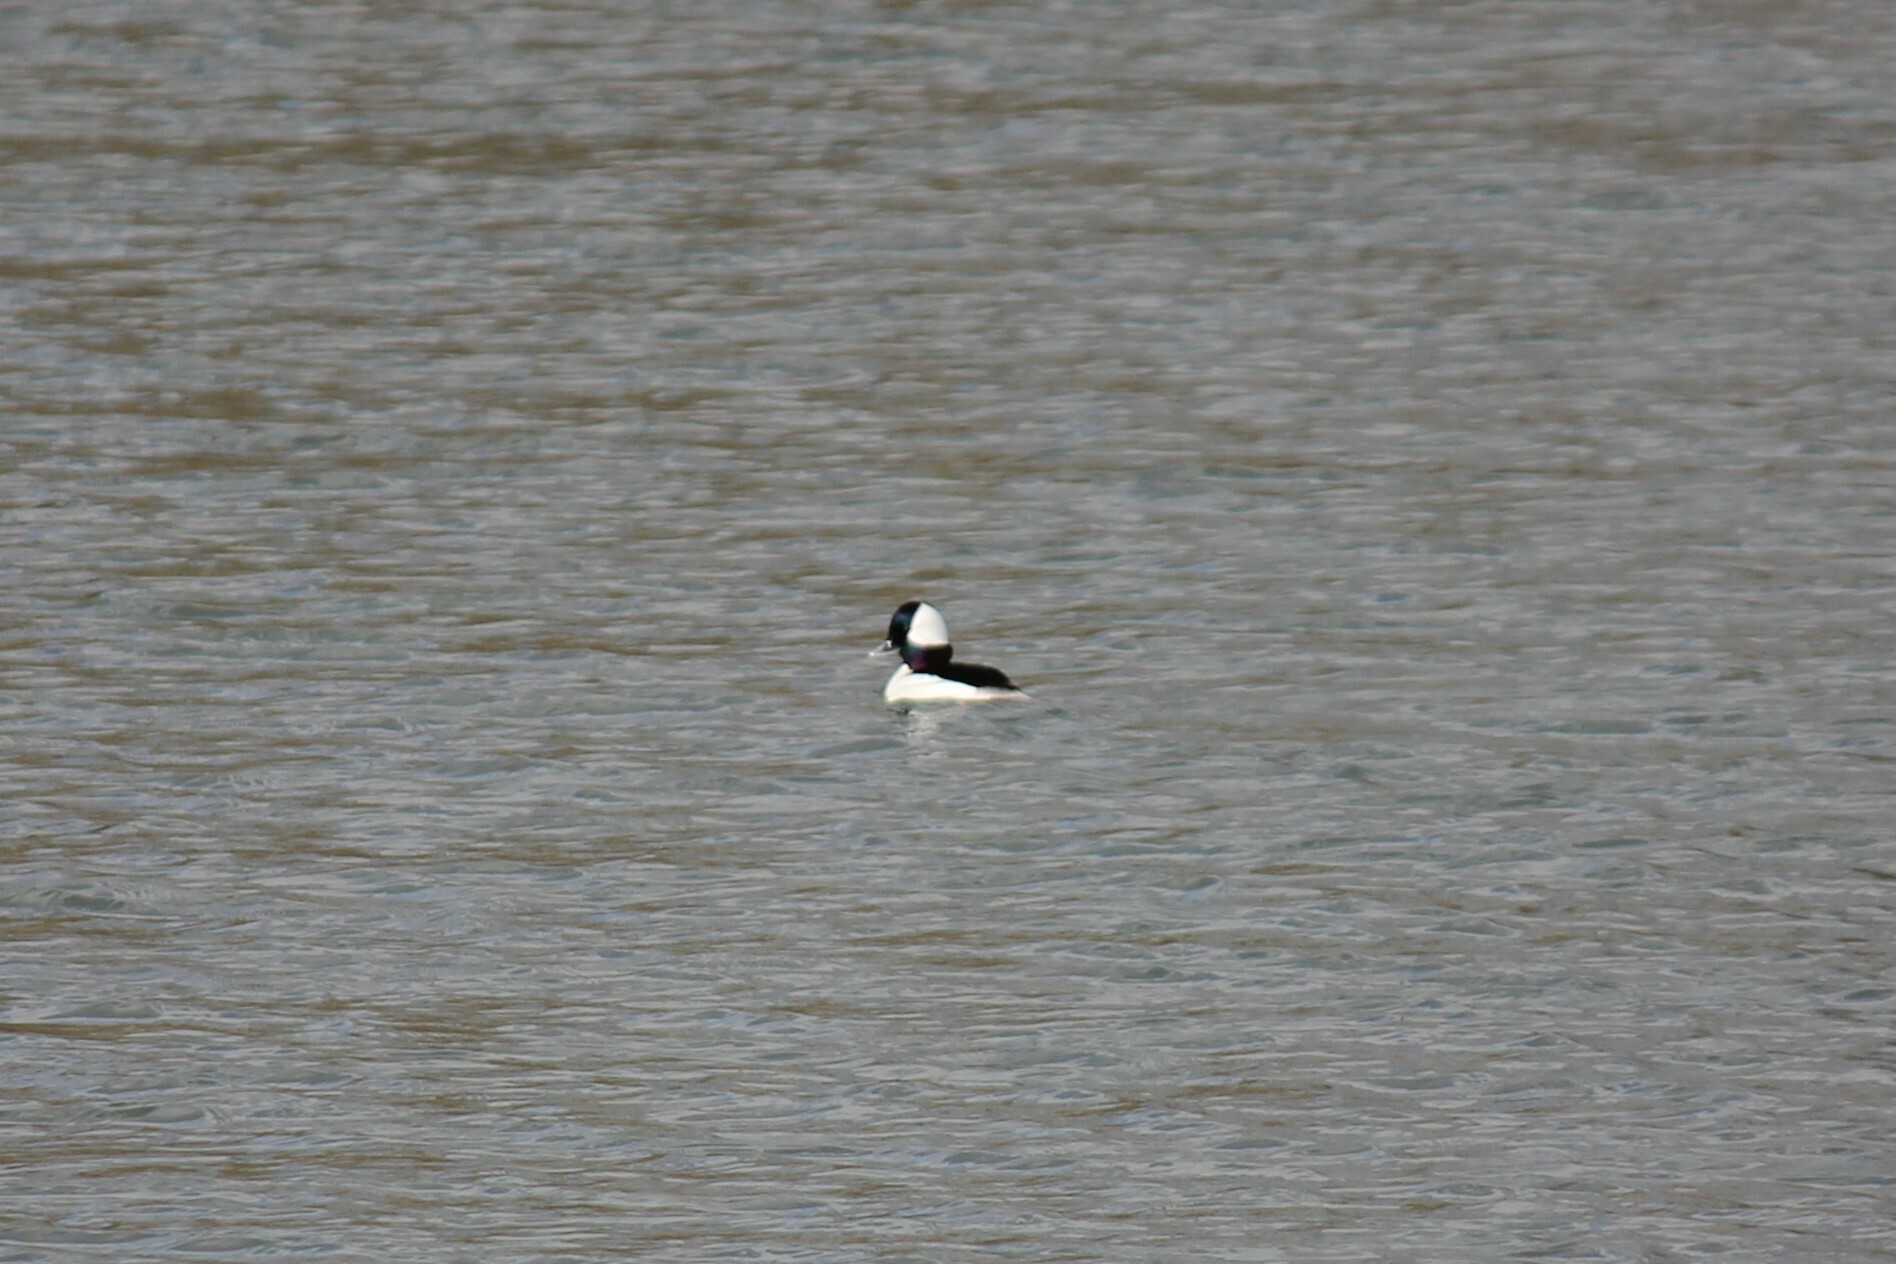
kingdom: Animalia
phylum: Chordata
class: Aves
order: Anseriformes
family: Anatidae
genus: Bucephala
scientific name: Bucephala albeola
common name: Bufflehead
